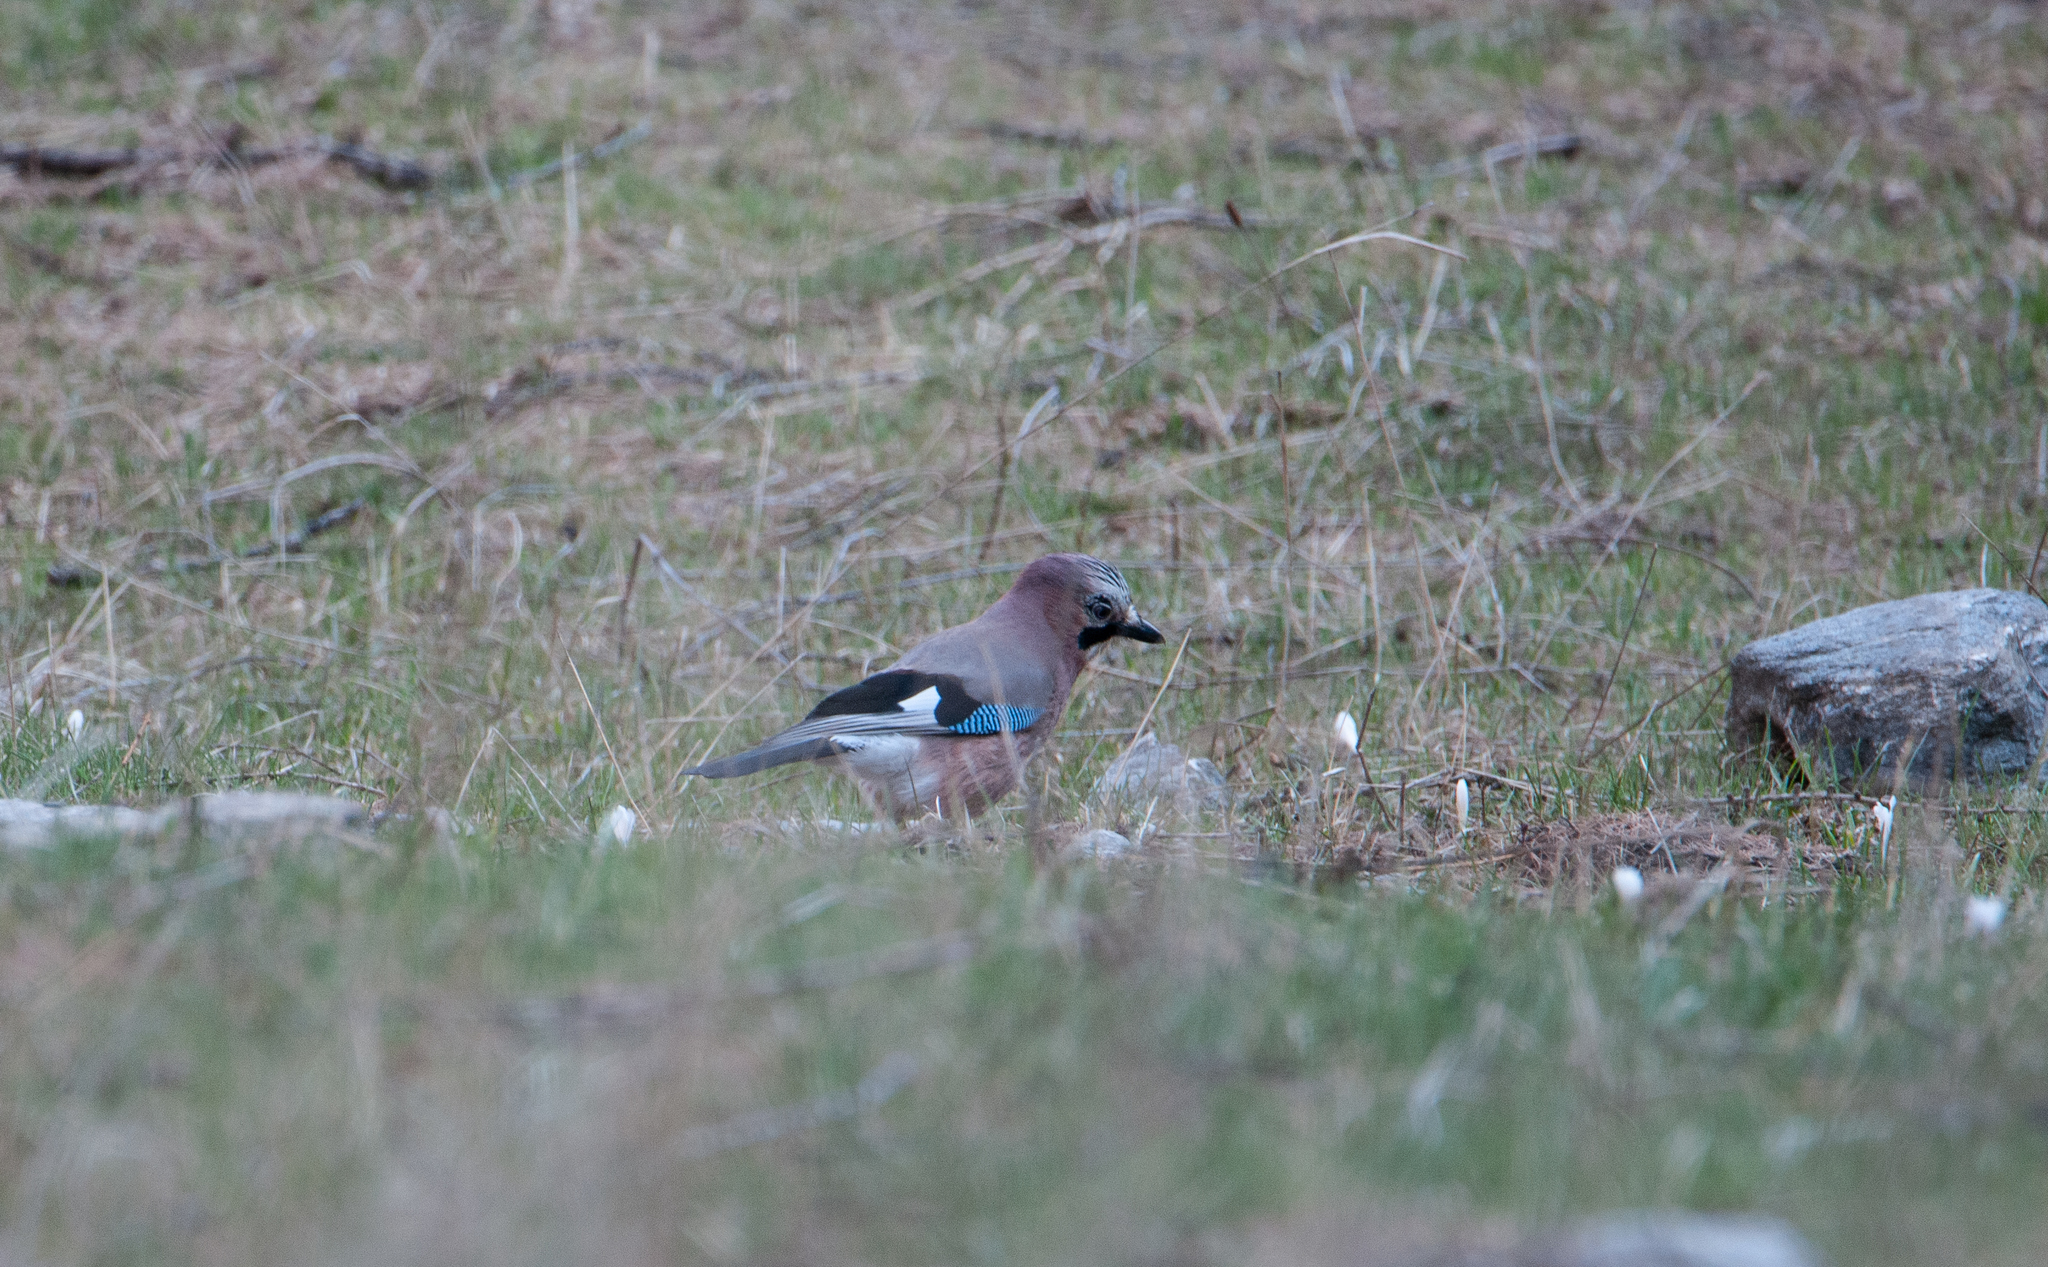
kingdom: Animalia
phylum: Chordata
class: Aves
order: Passeriformes
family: Corvidae
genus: Garrulus
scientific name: Garrulus glandarius
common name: Eurasian jay
